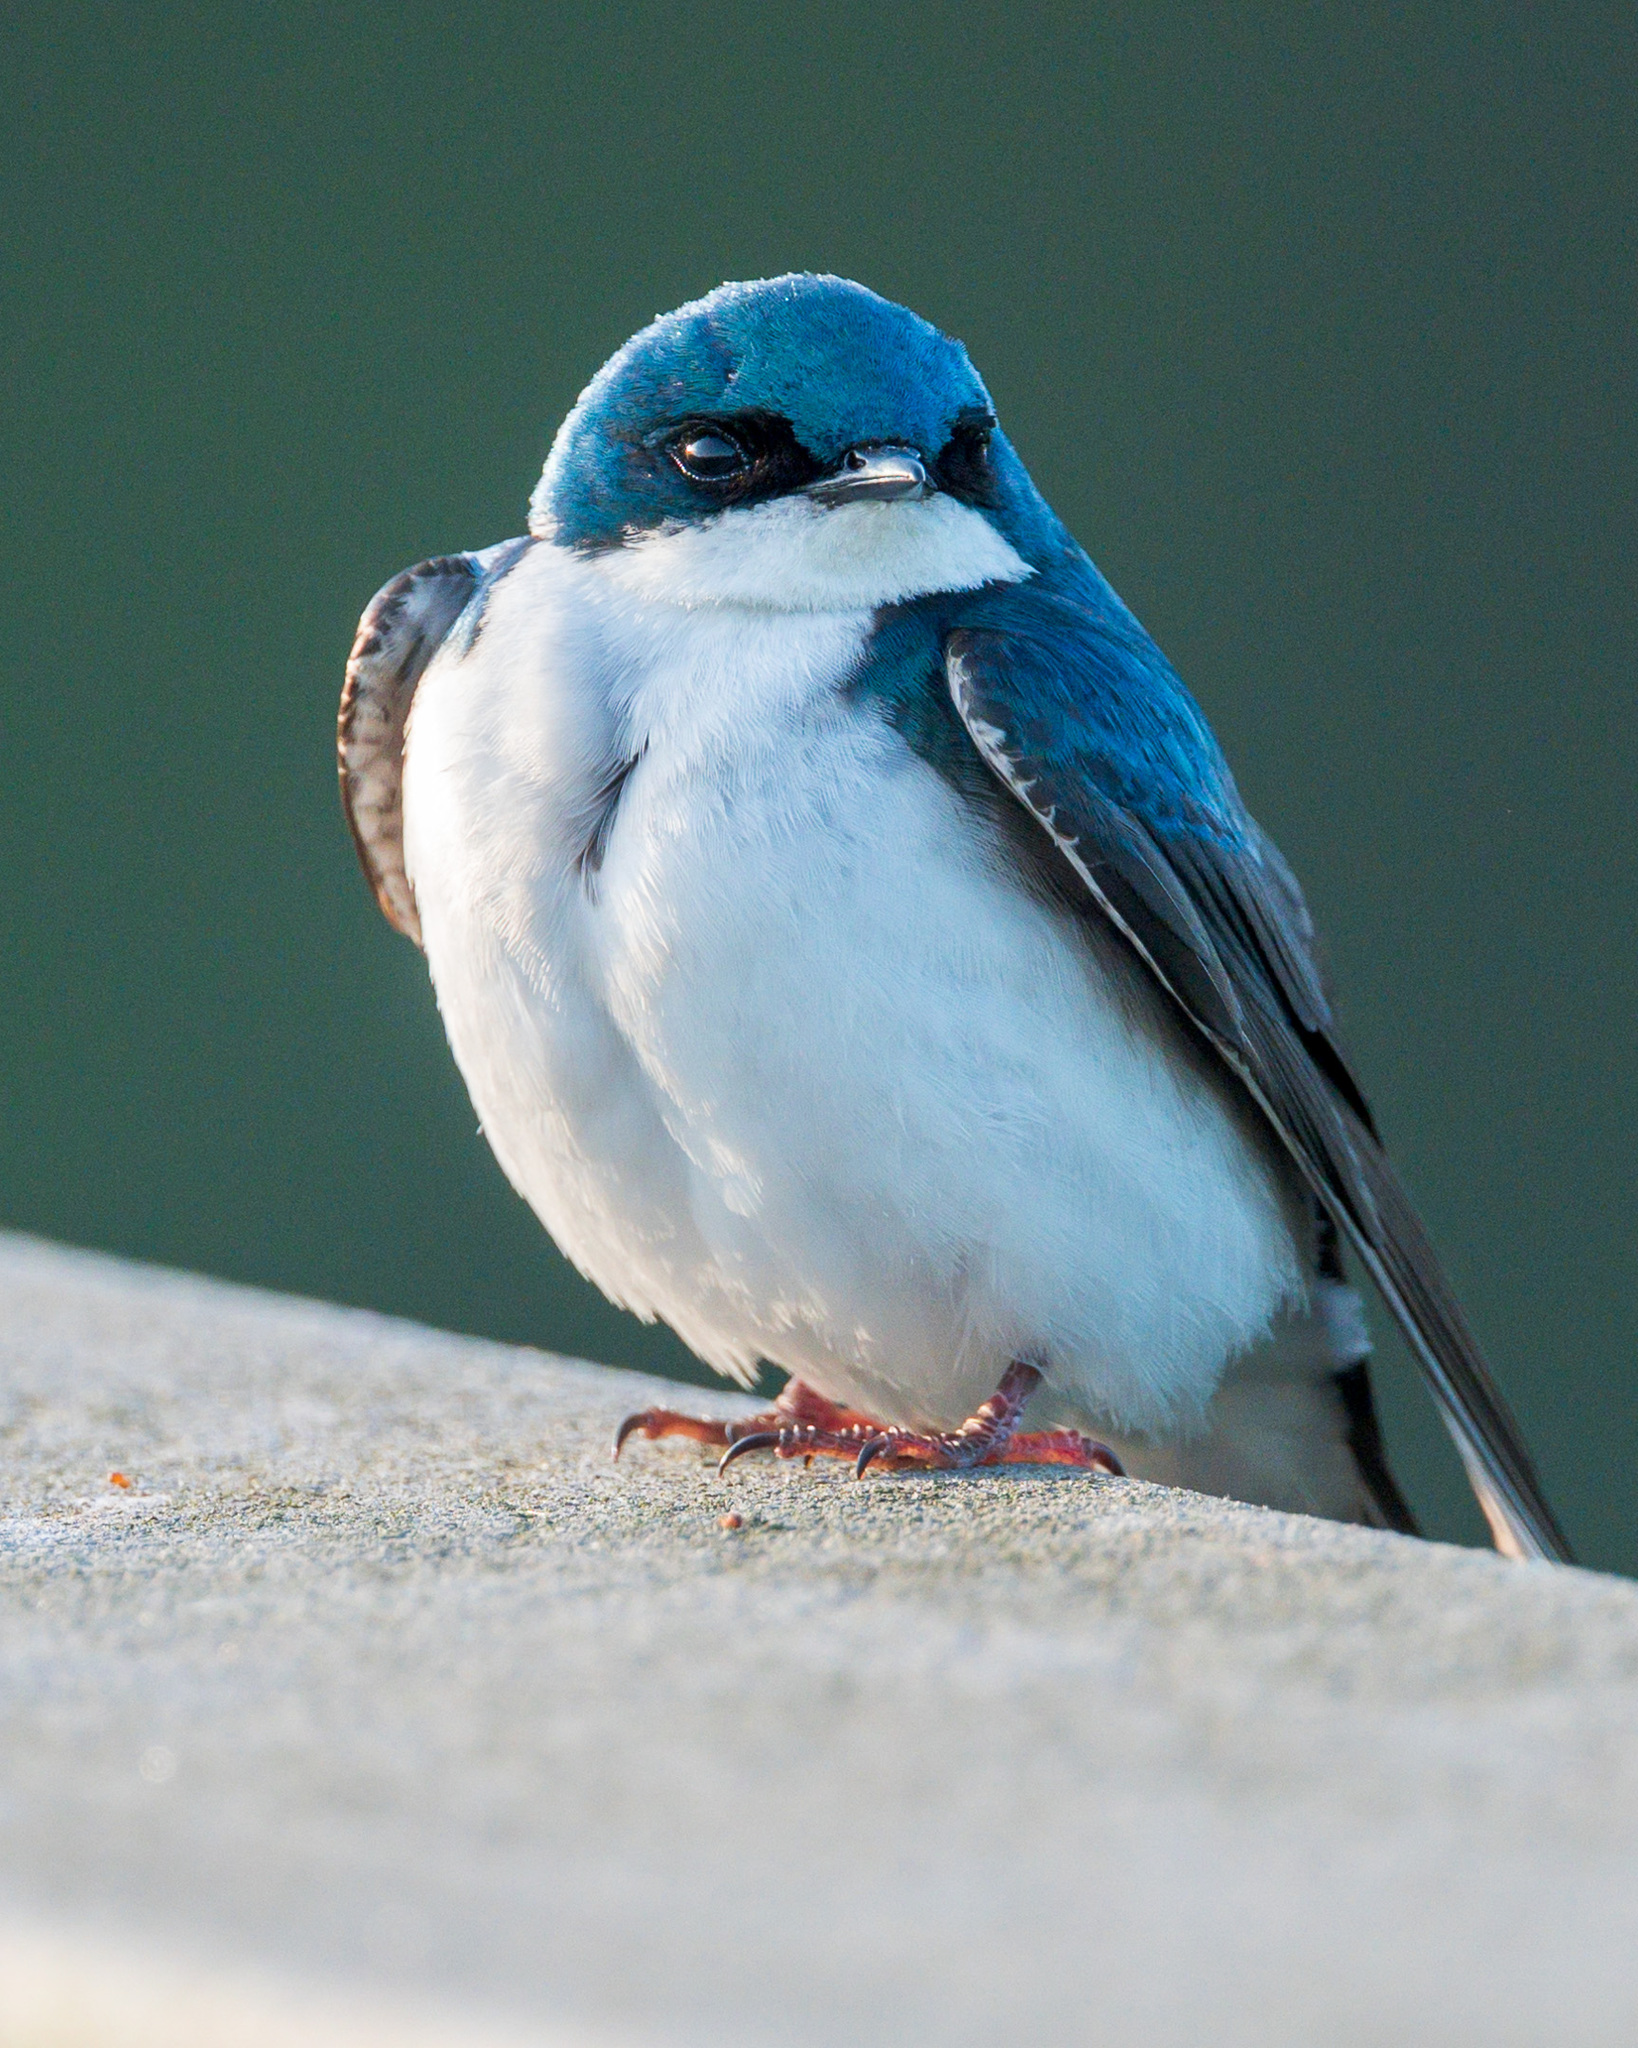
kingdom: Animalia
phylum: Chordata
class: Aves
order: Passeriformes
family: Hirundinidae
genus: Tachycineta
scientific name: Tachycineta bicolor
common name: Tree swallow
